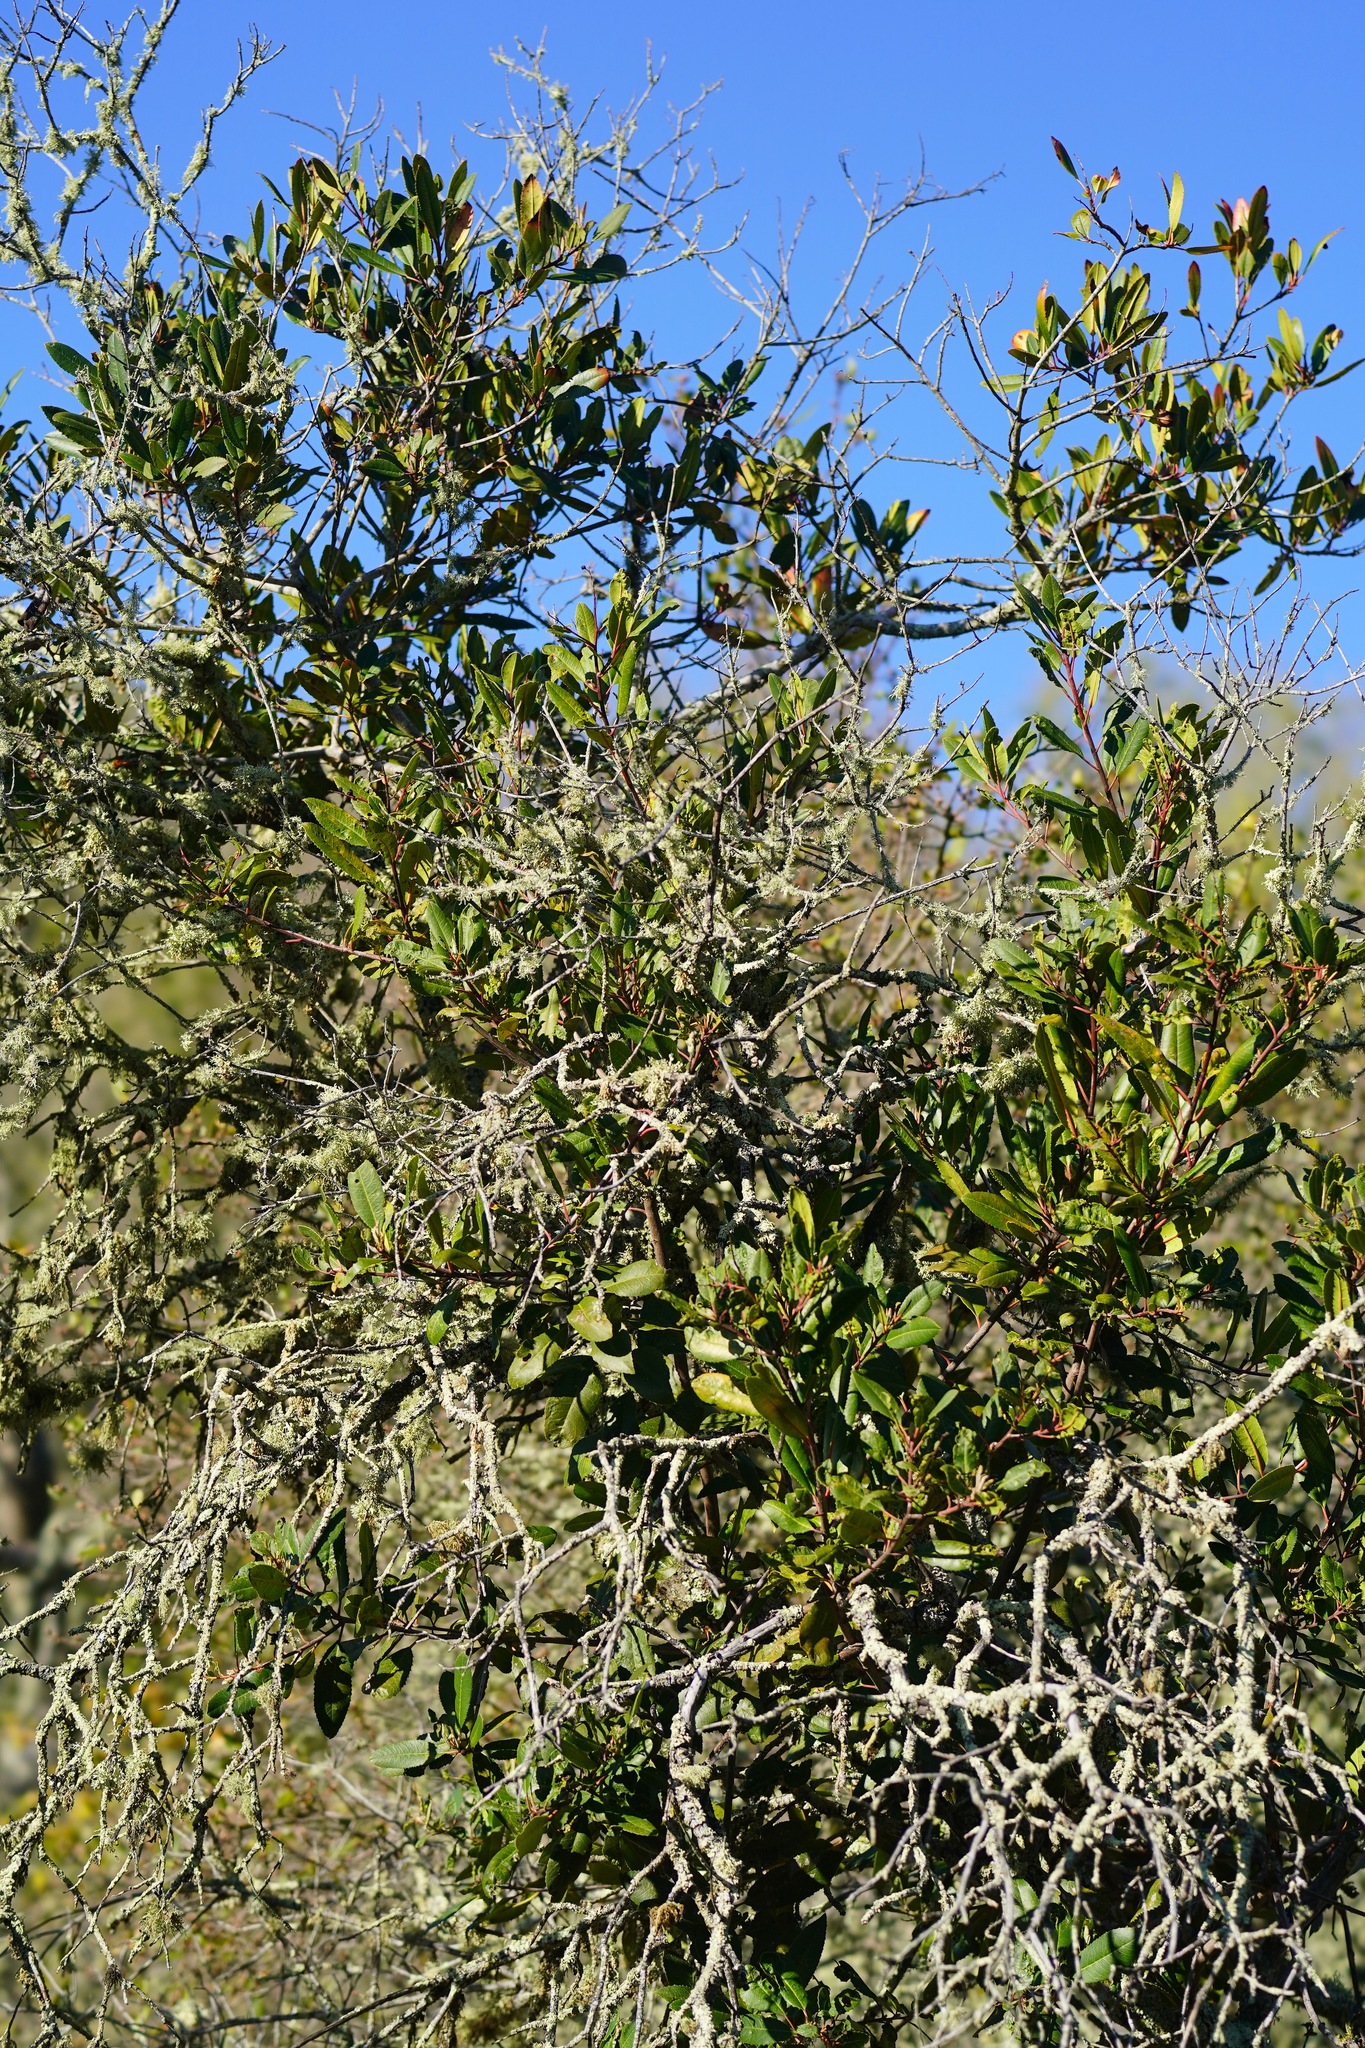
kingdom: Plantae
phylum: Tracheophyta
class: Magnoliopsida
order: Rosales
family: Rosaceae
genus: Heteromeles
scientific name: Heteromeles arbutifolia
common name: California-holly
